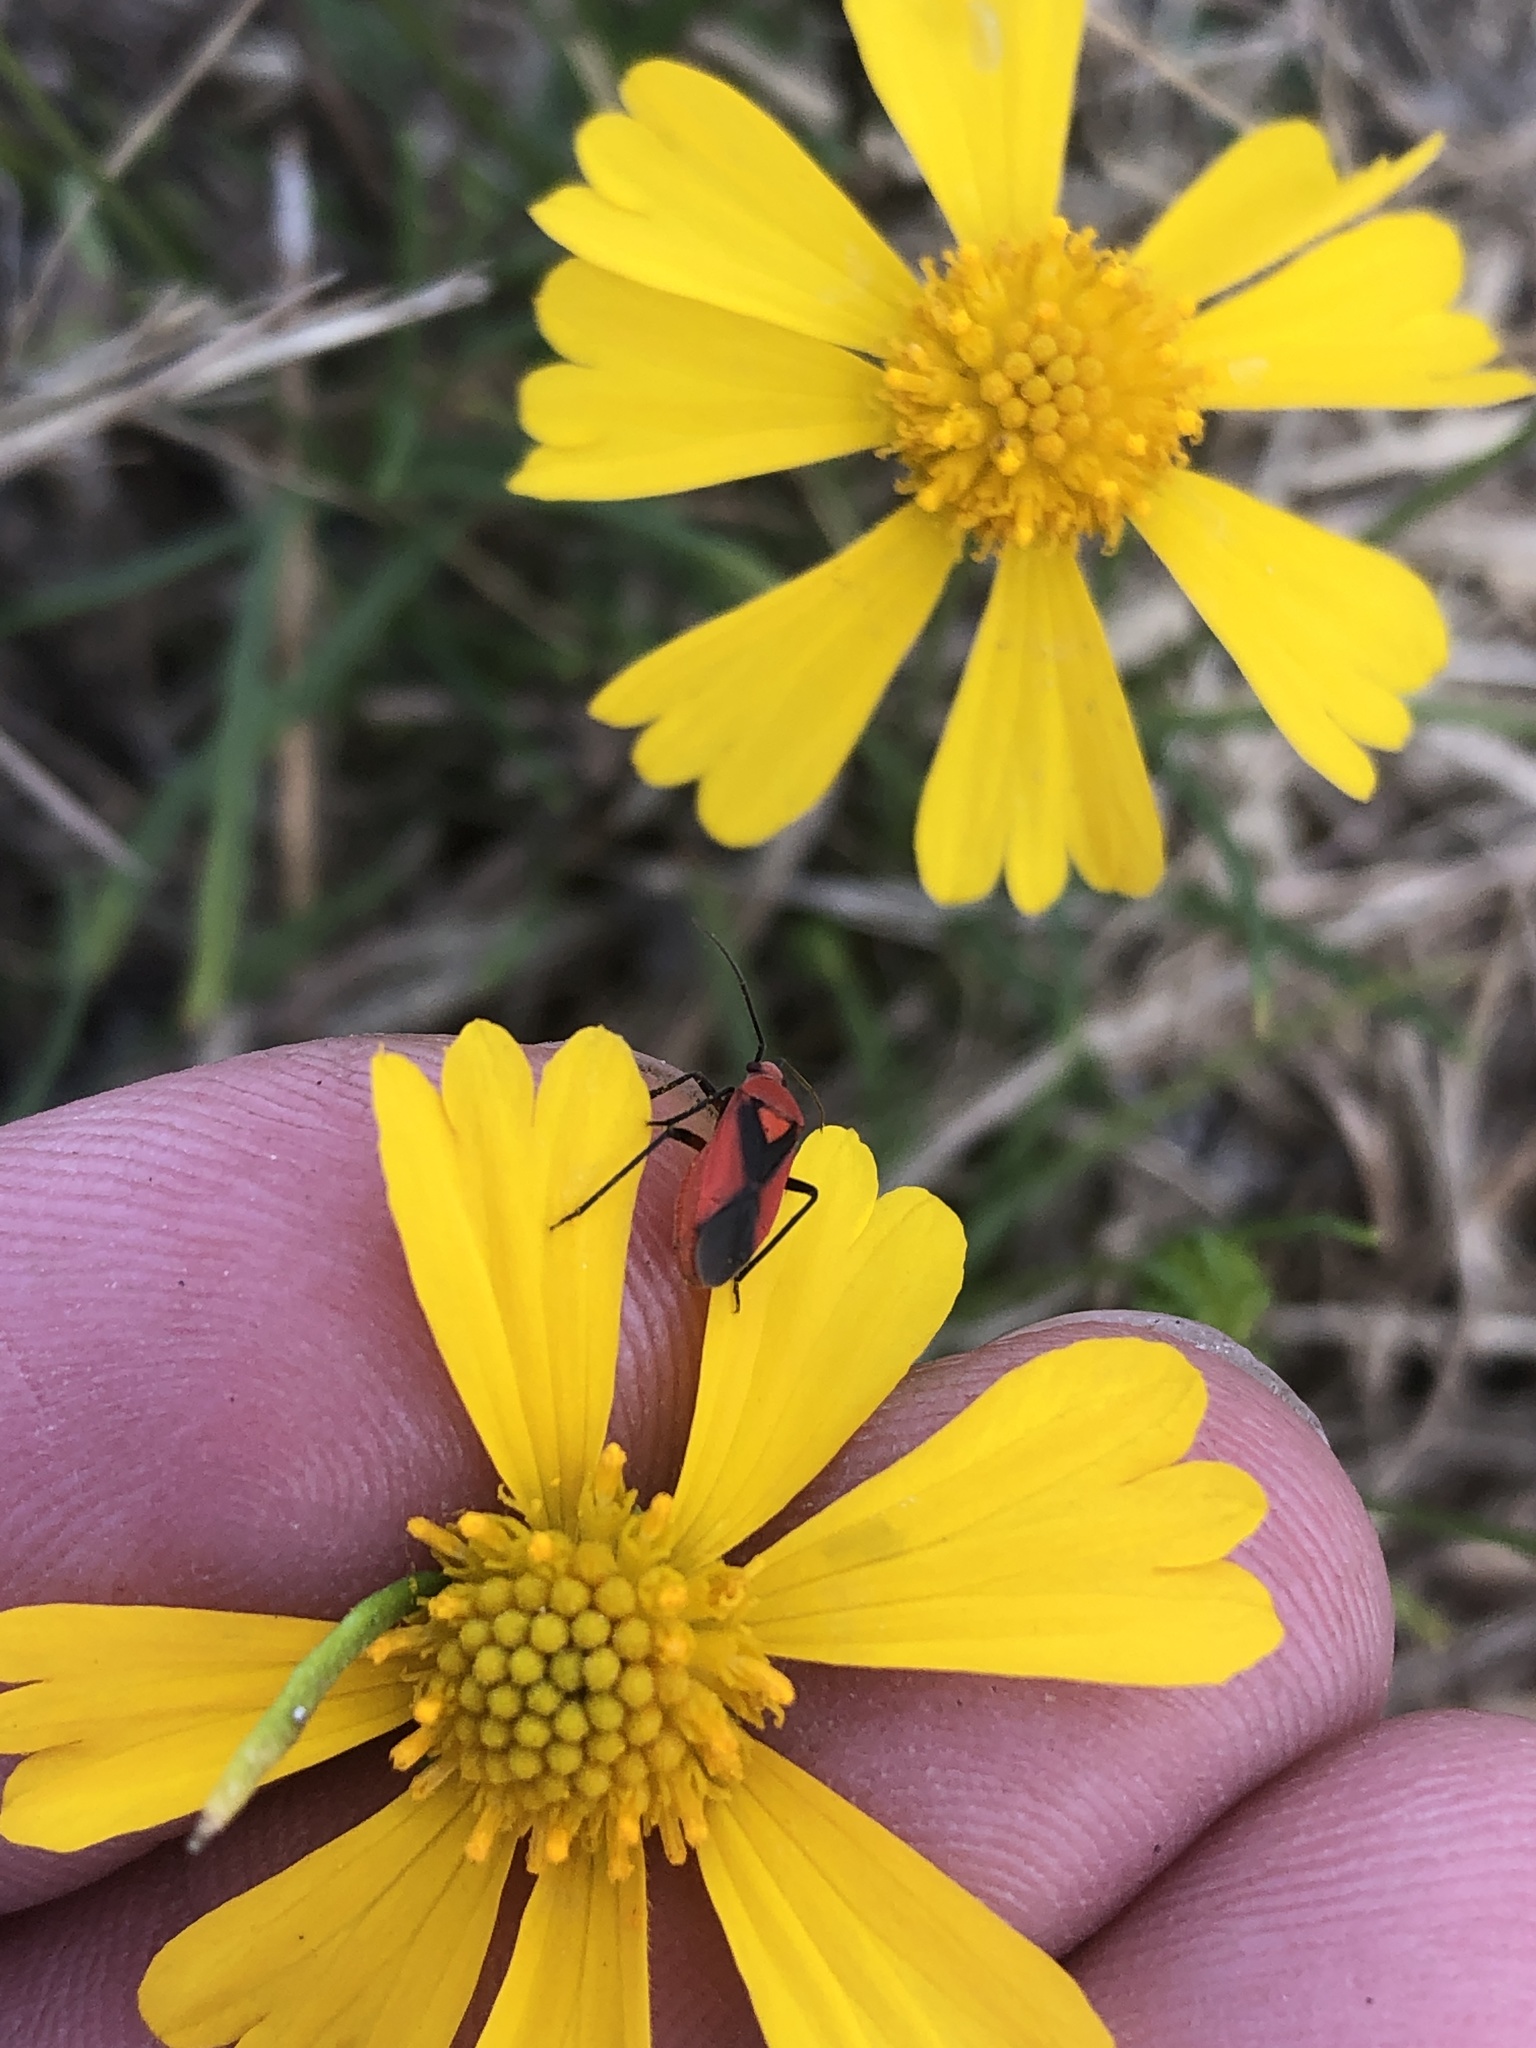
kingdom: Animalia
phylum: Arthropoda
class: Insecta
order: Hemiptera
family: Miridae
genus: Oncerometopus
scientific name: Oncerometopus nigriclavus
